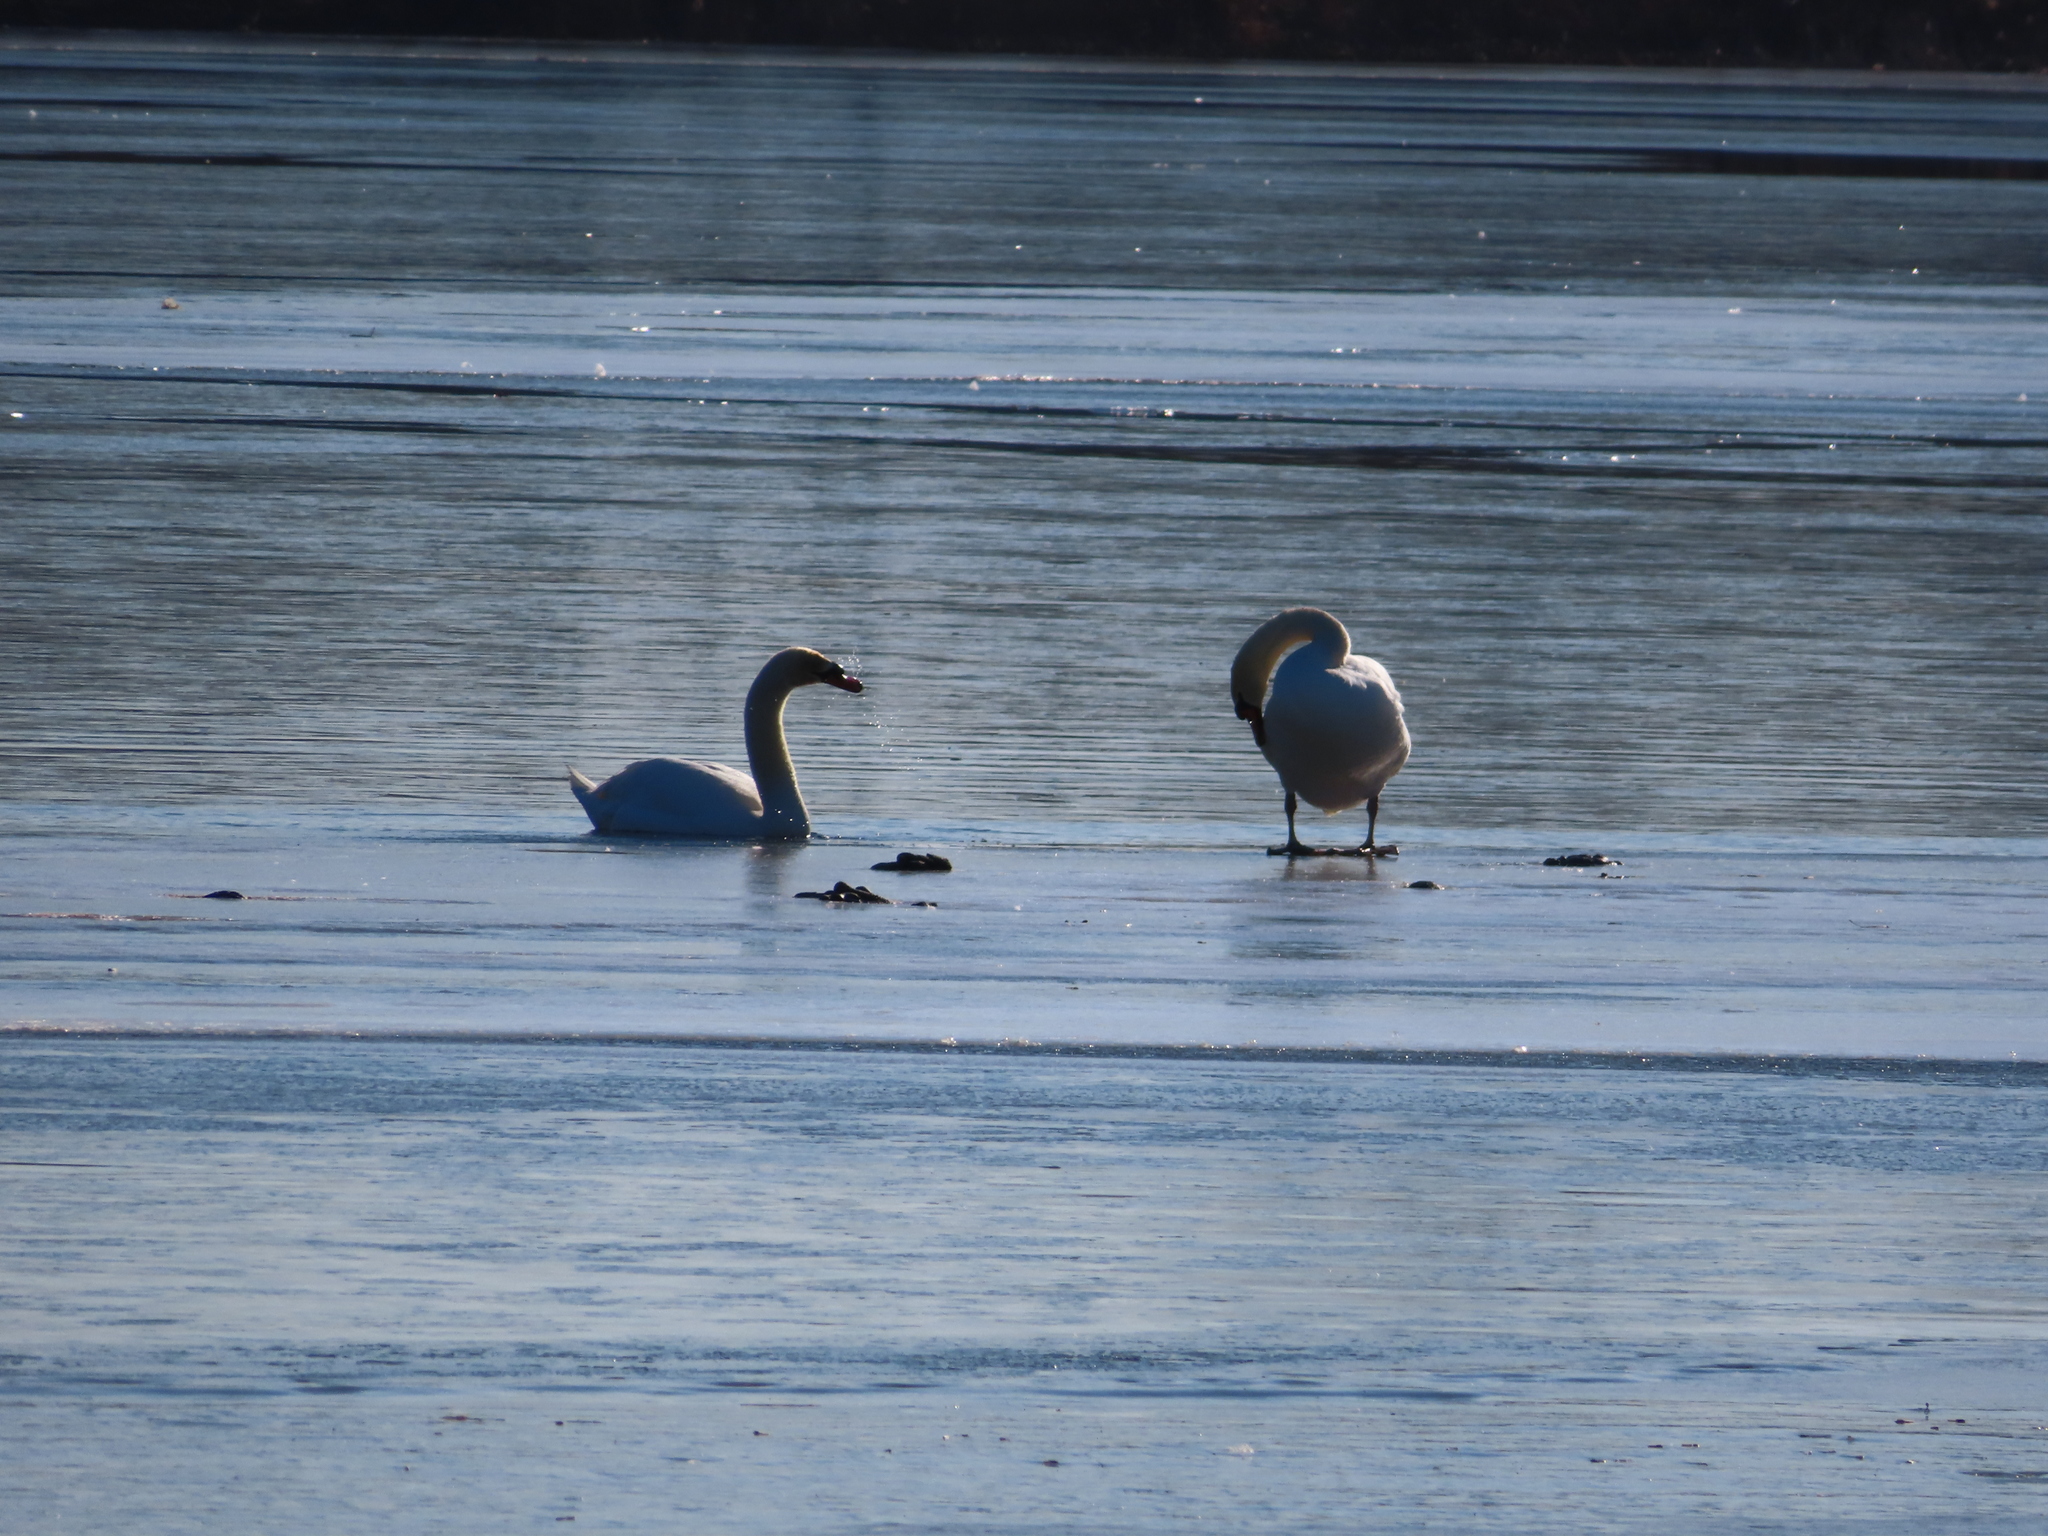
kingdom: Animalia
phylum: Chordata
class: Aves
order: Anseriformes
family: Anatidae
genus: Cygnus
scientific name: Cygnus olor
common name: Mute swan
